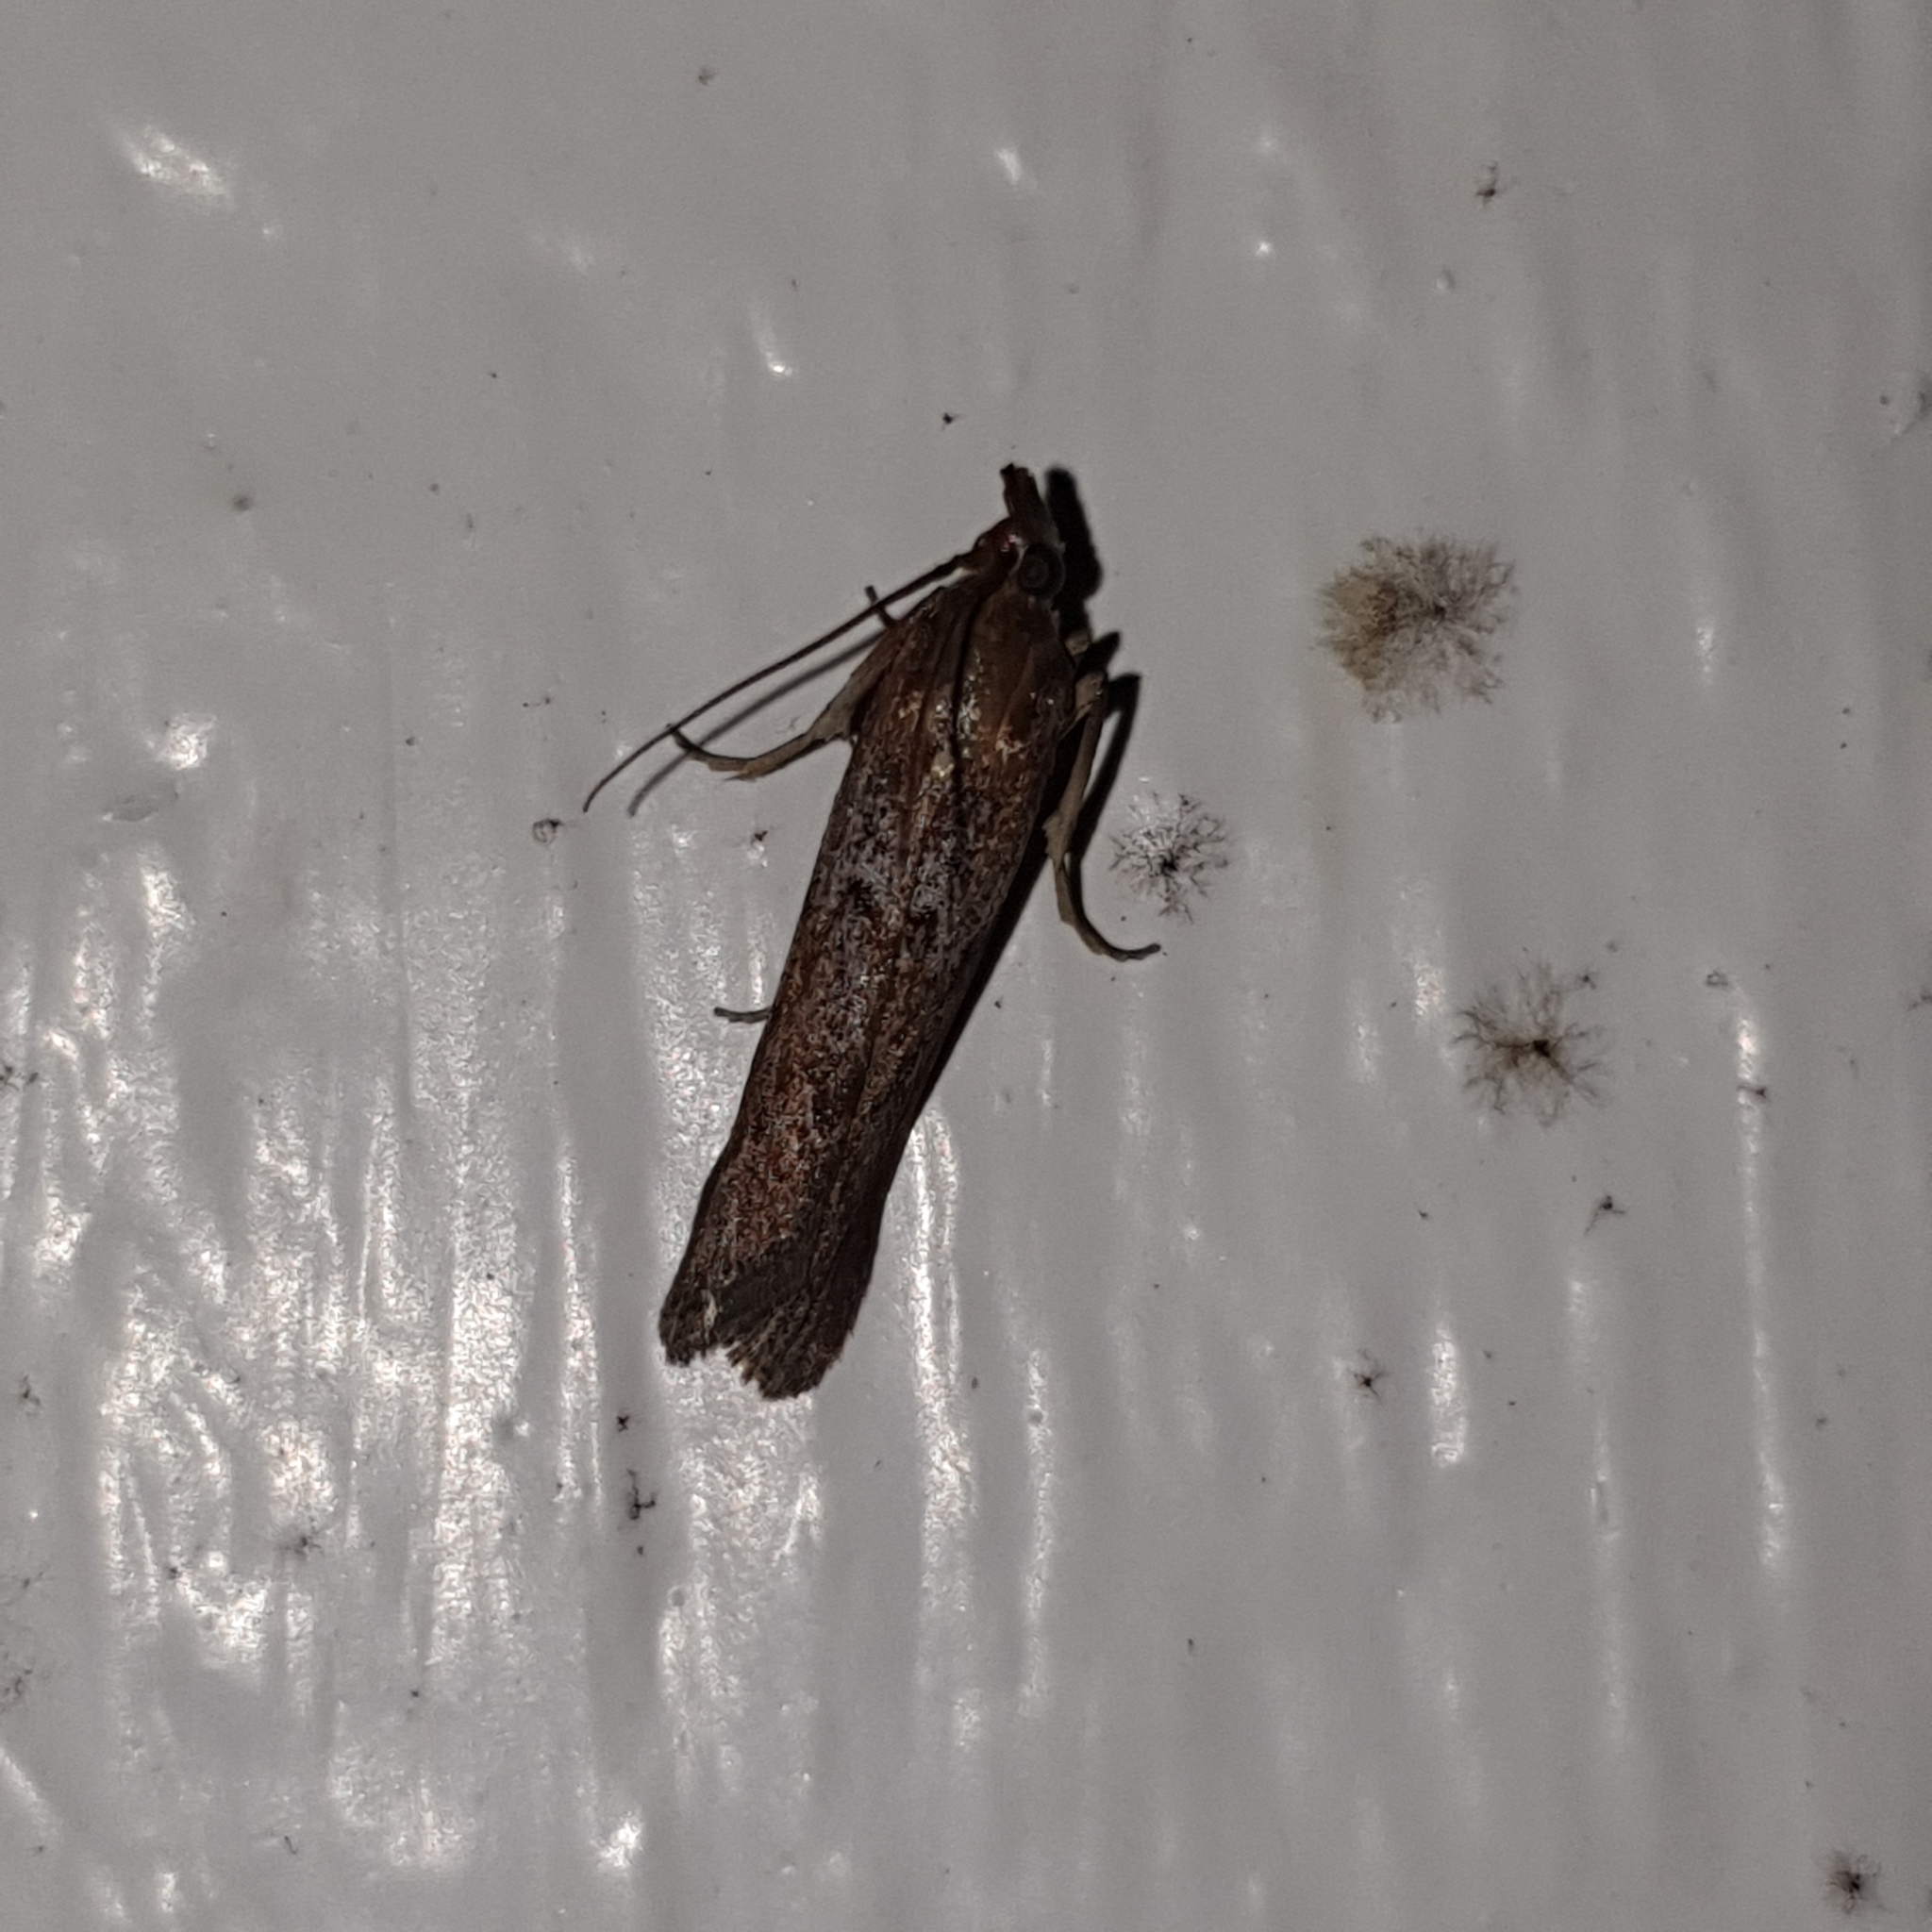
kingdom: Animalia
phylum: Arthropoda
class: Insecta
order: Lepidoptera
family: Pyralidae
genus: Selagia
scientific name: Selagia spadicella
